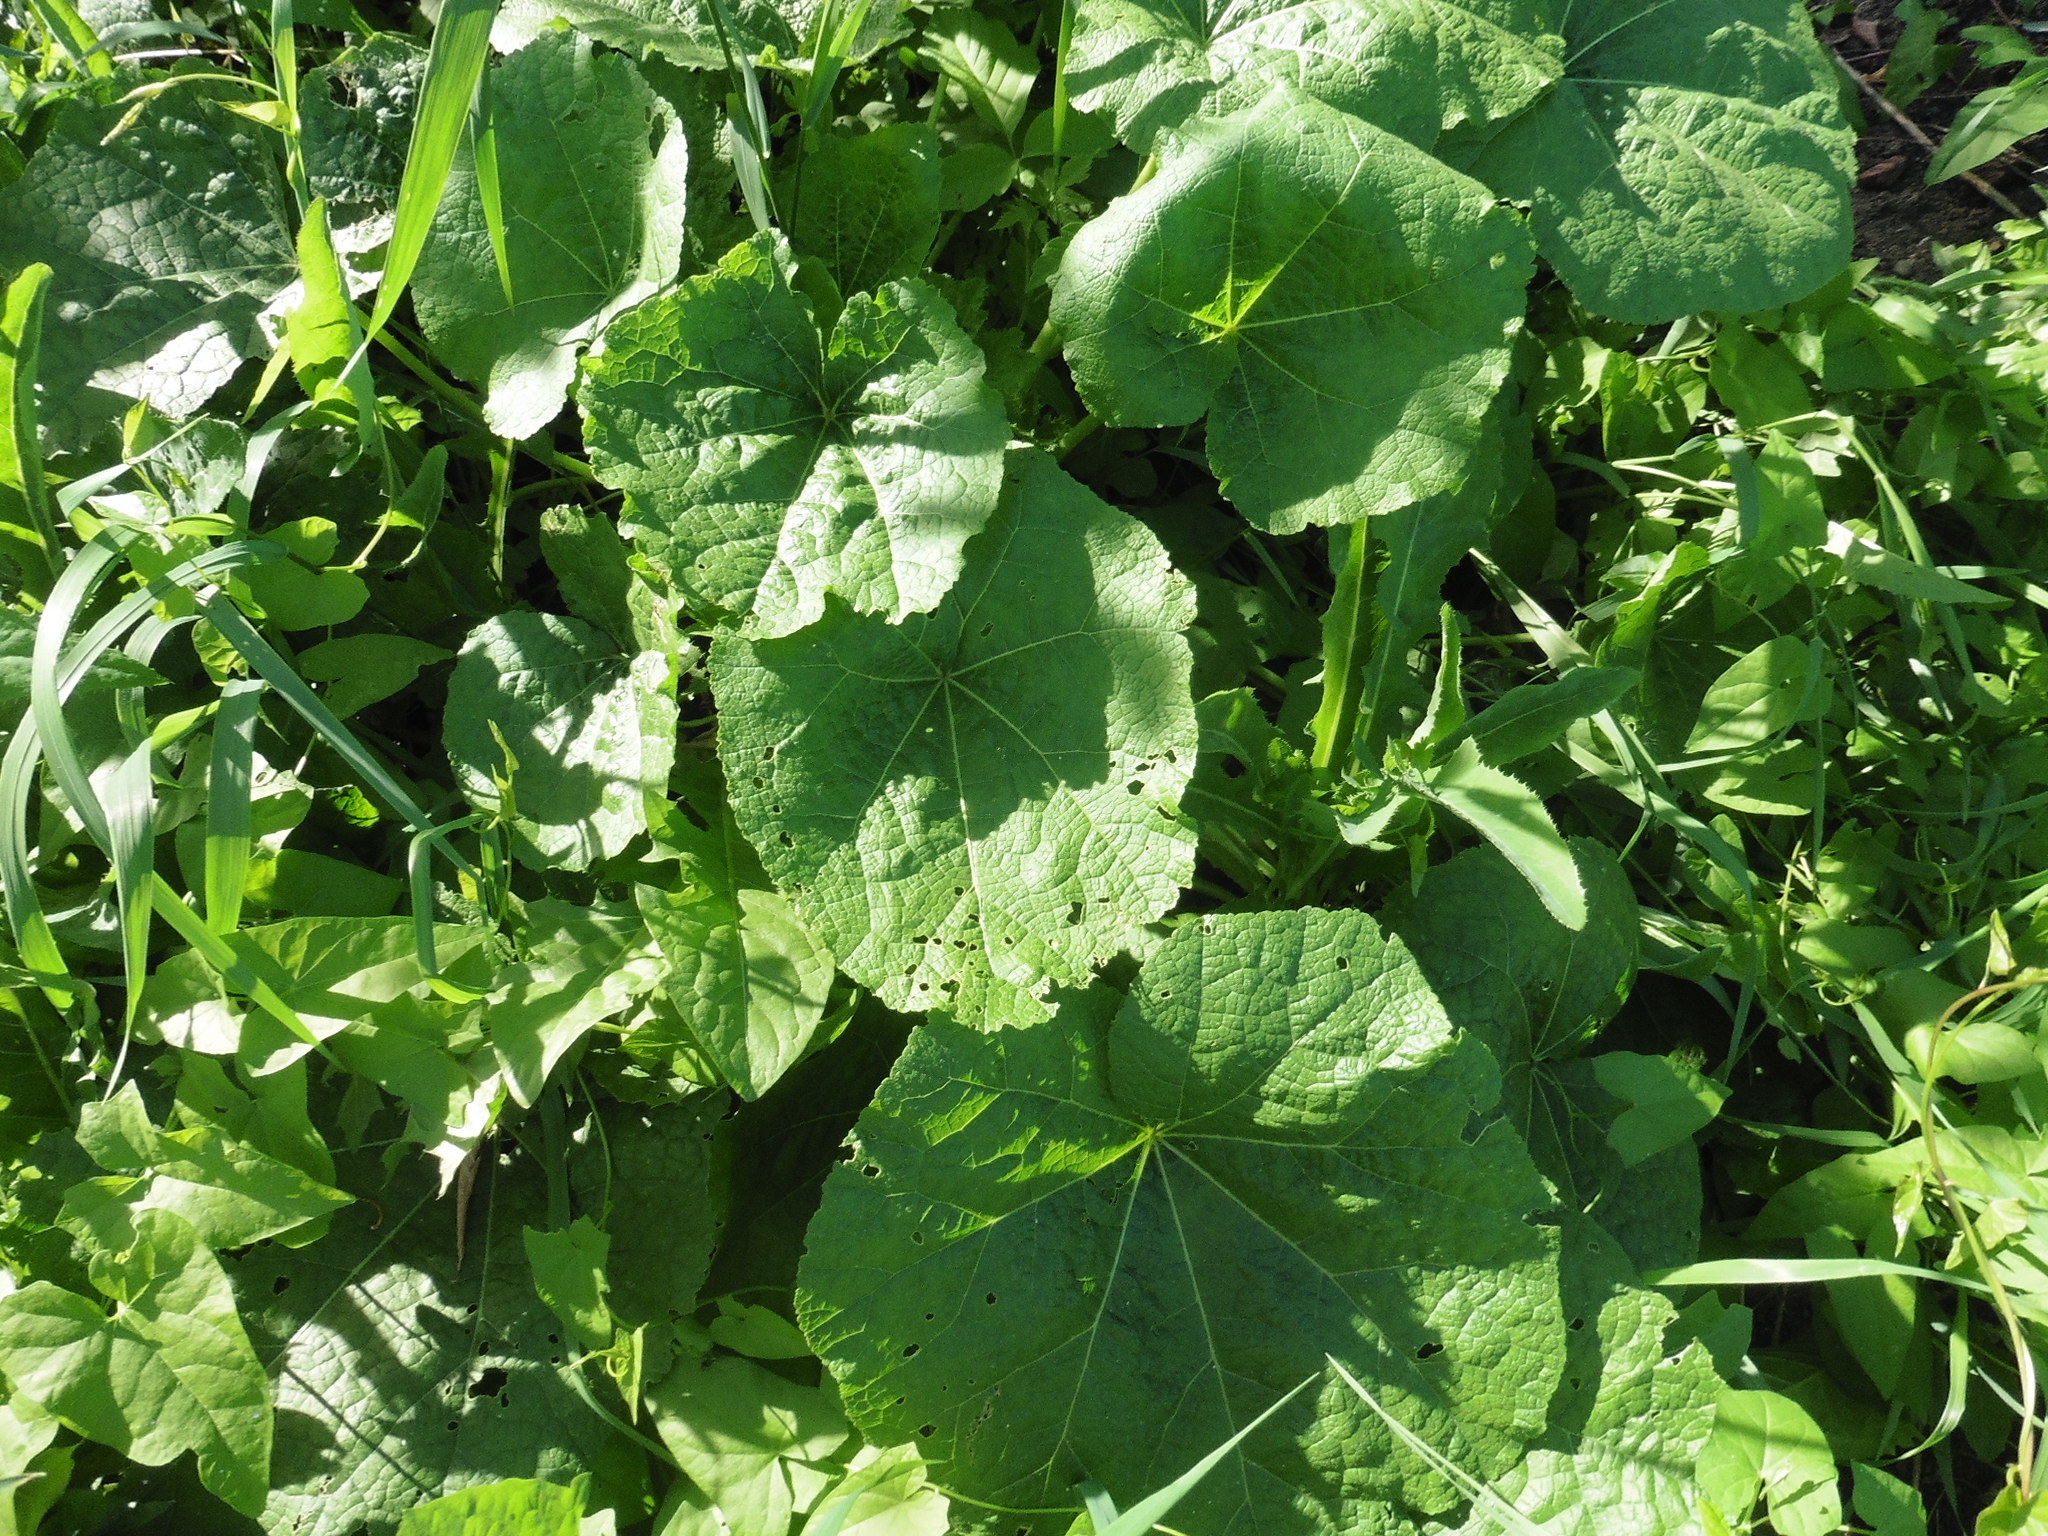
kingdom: Plantae
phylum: Tracheophyta
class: Magnoliopsida
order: Malvales
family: Malvaceae
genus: Alcea
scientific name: Alcea rosea
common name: Hollyhock
